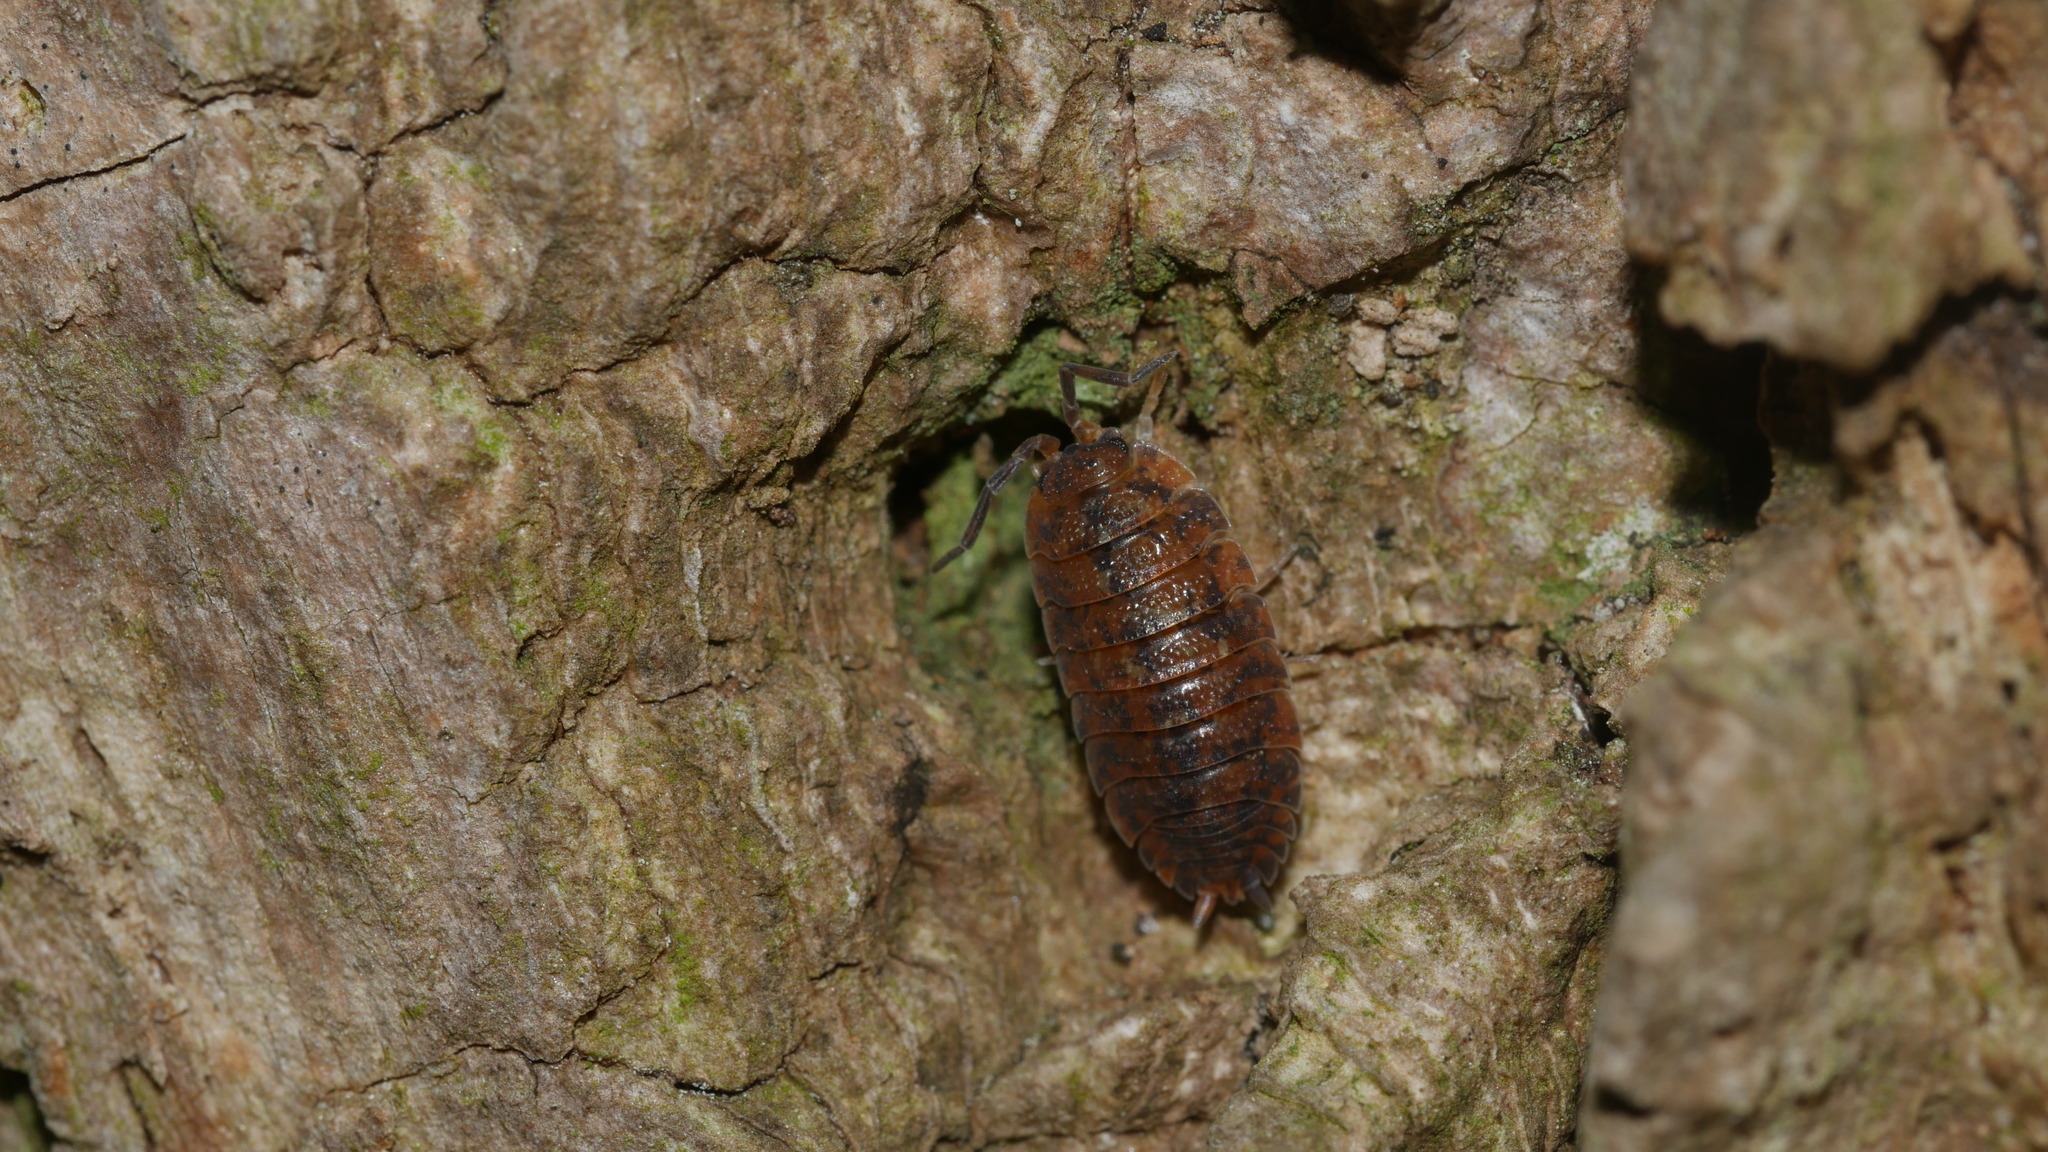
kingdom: Animalia
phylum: Arthropoda
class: Malacostraca
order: Isopoda
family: Porcellionidae
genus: Porcellio
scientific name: Porcellio scaber
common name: Common rough woodlouse
